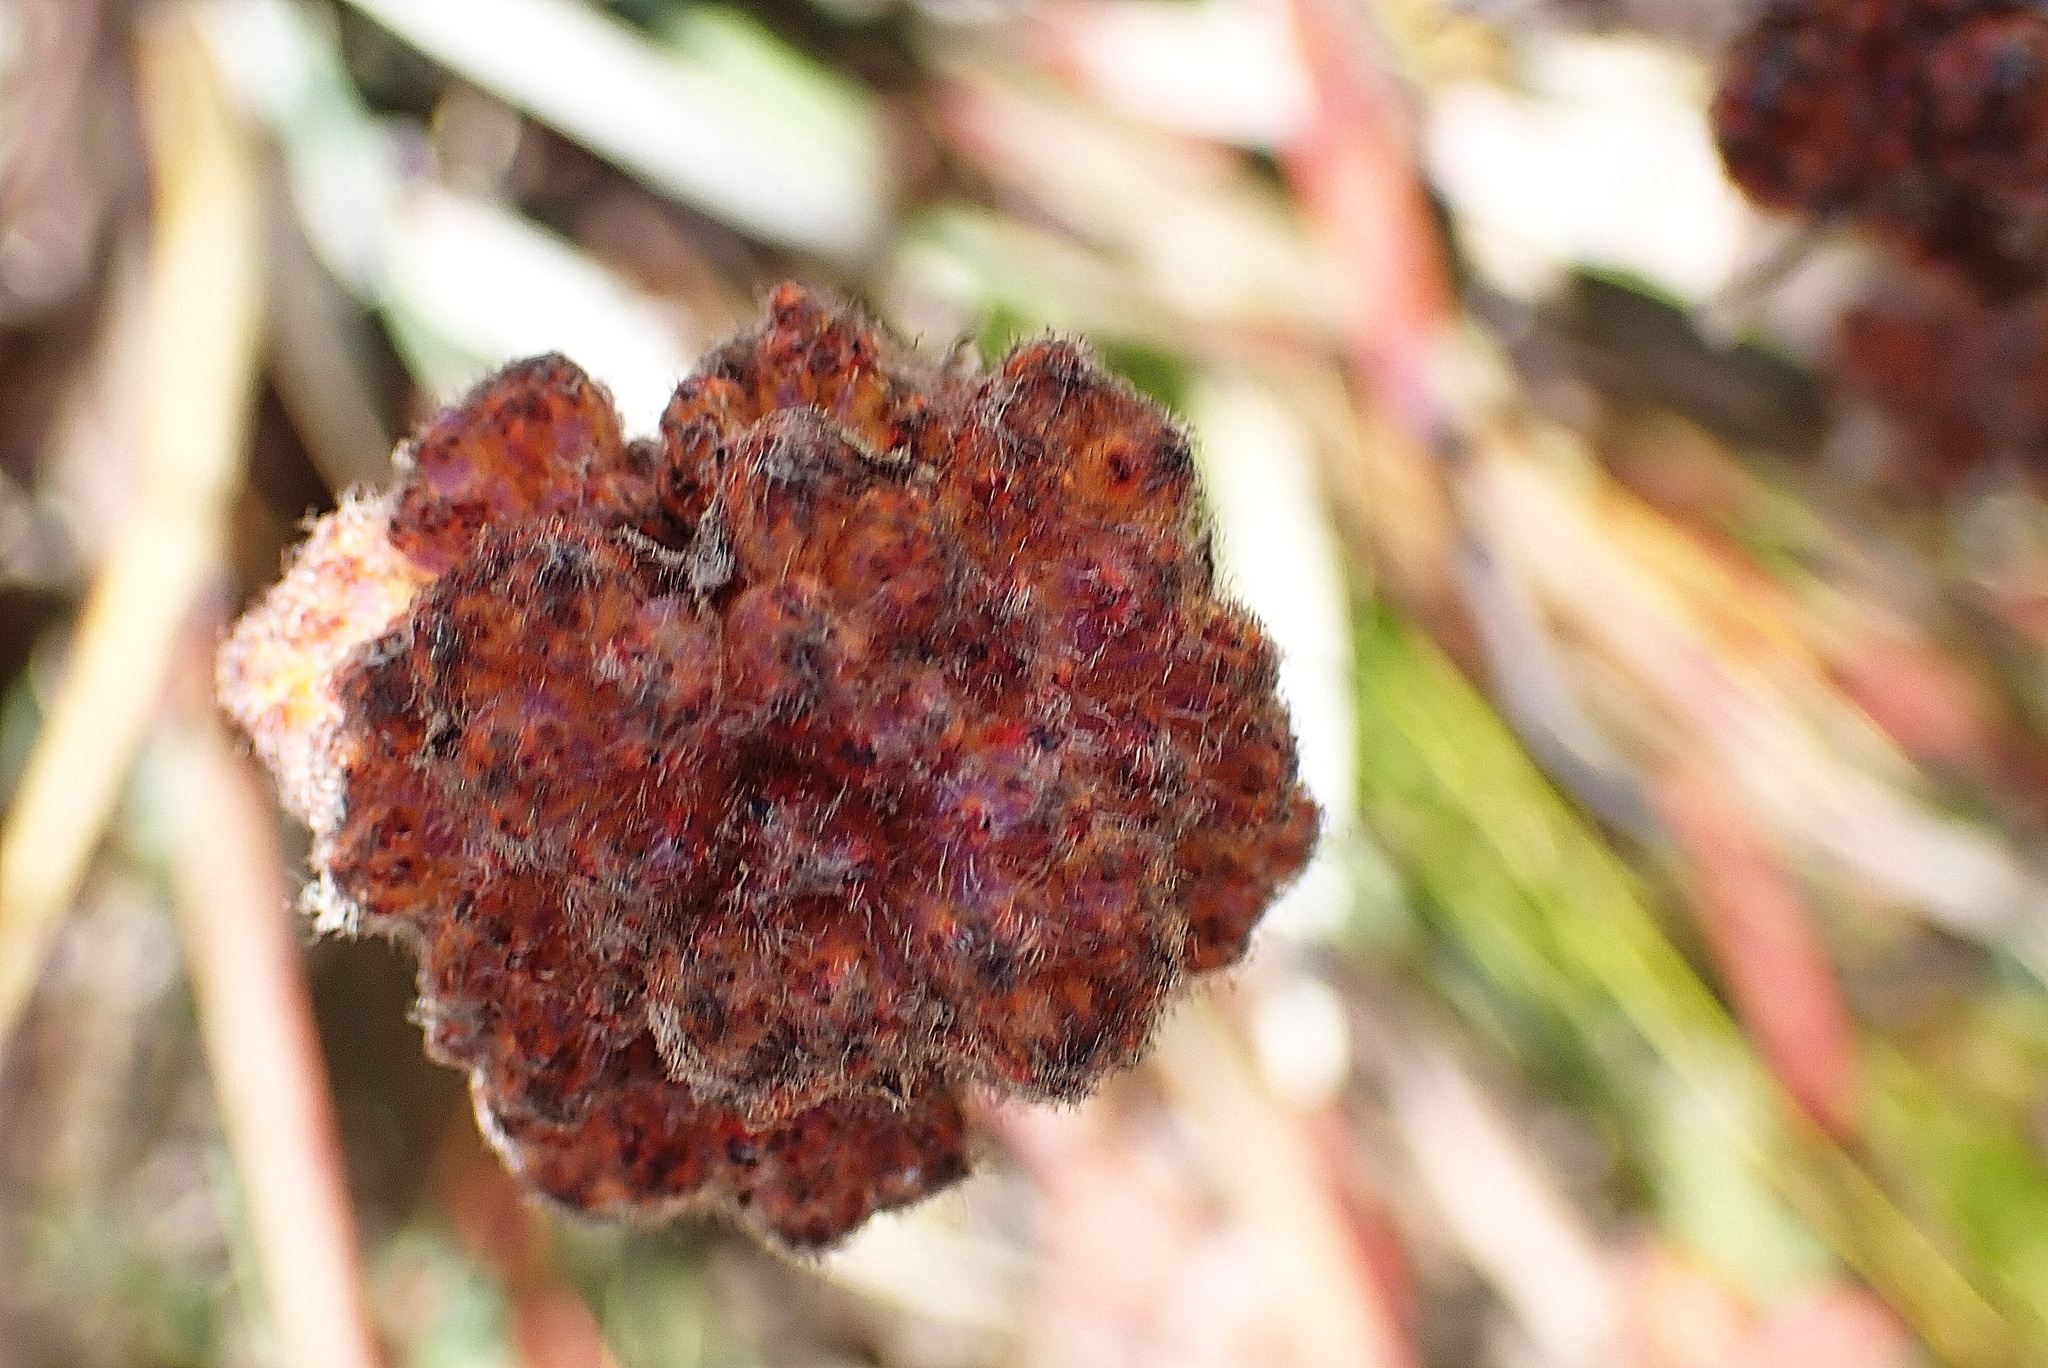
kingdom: Plantae
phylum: Tracheophyta
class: Liliopsida
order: Commelinales
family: Haemodoraceae
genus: Dilatris
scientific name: Dilatris ixioides
